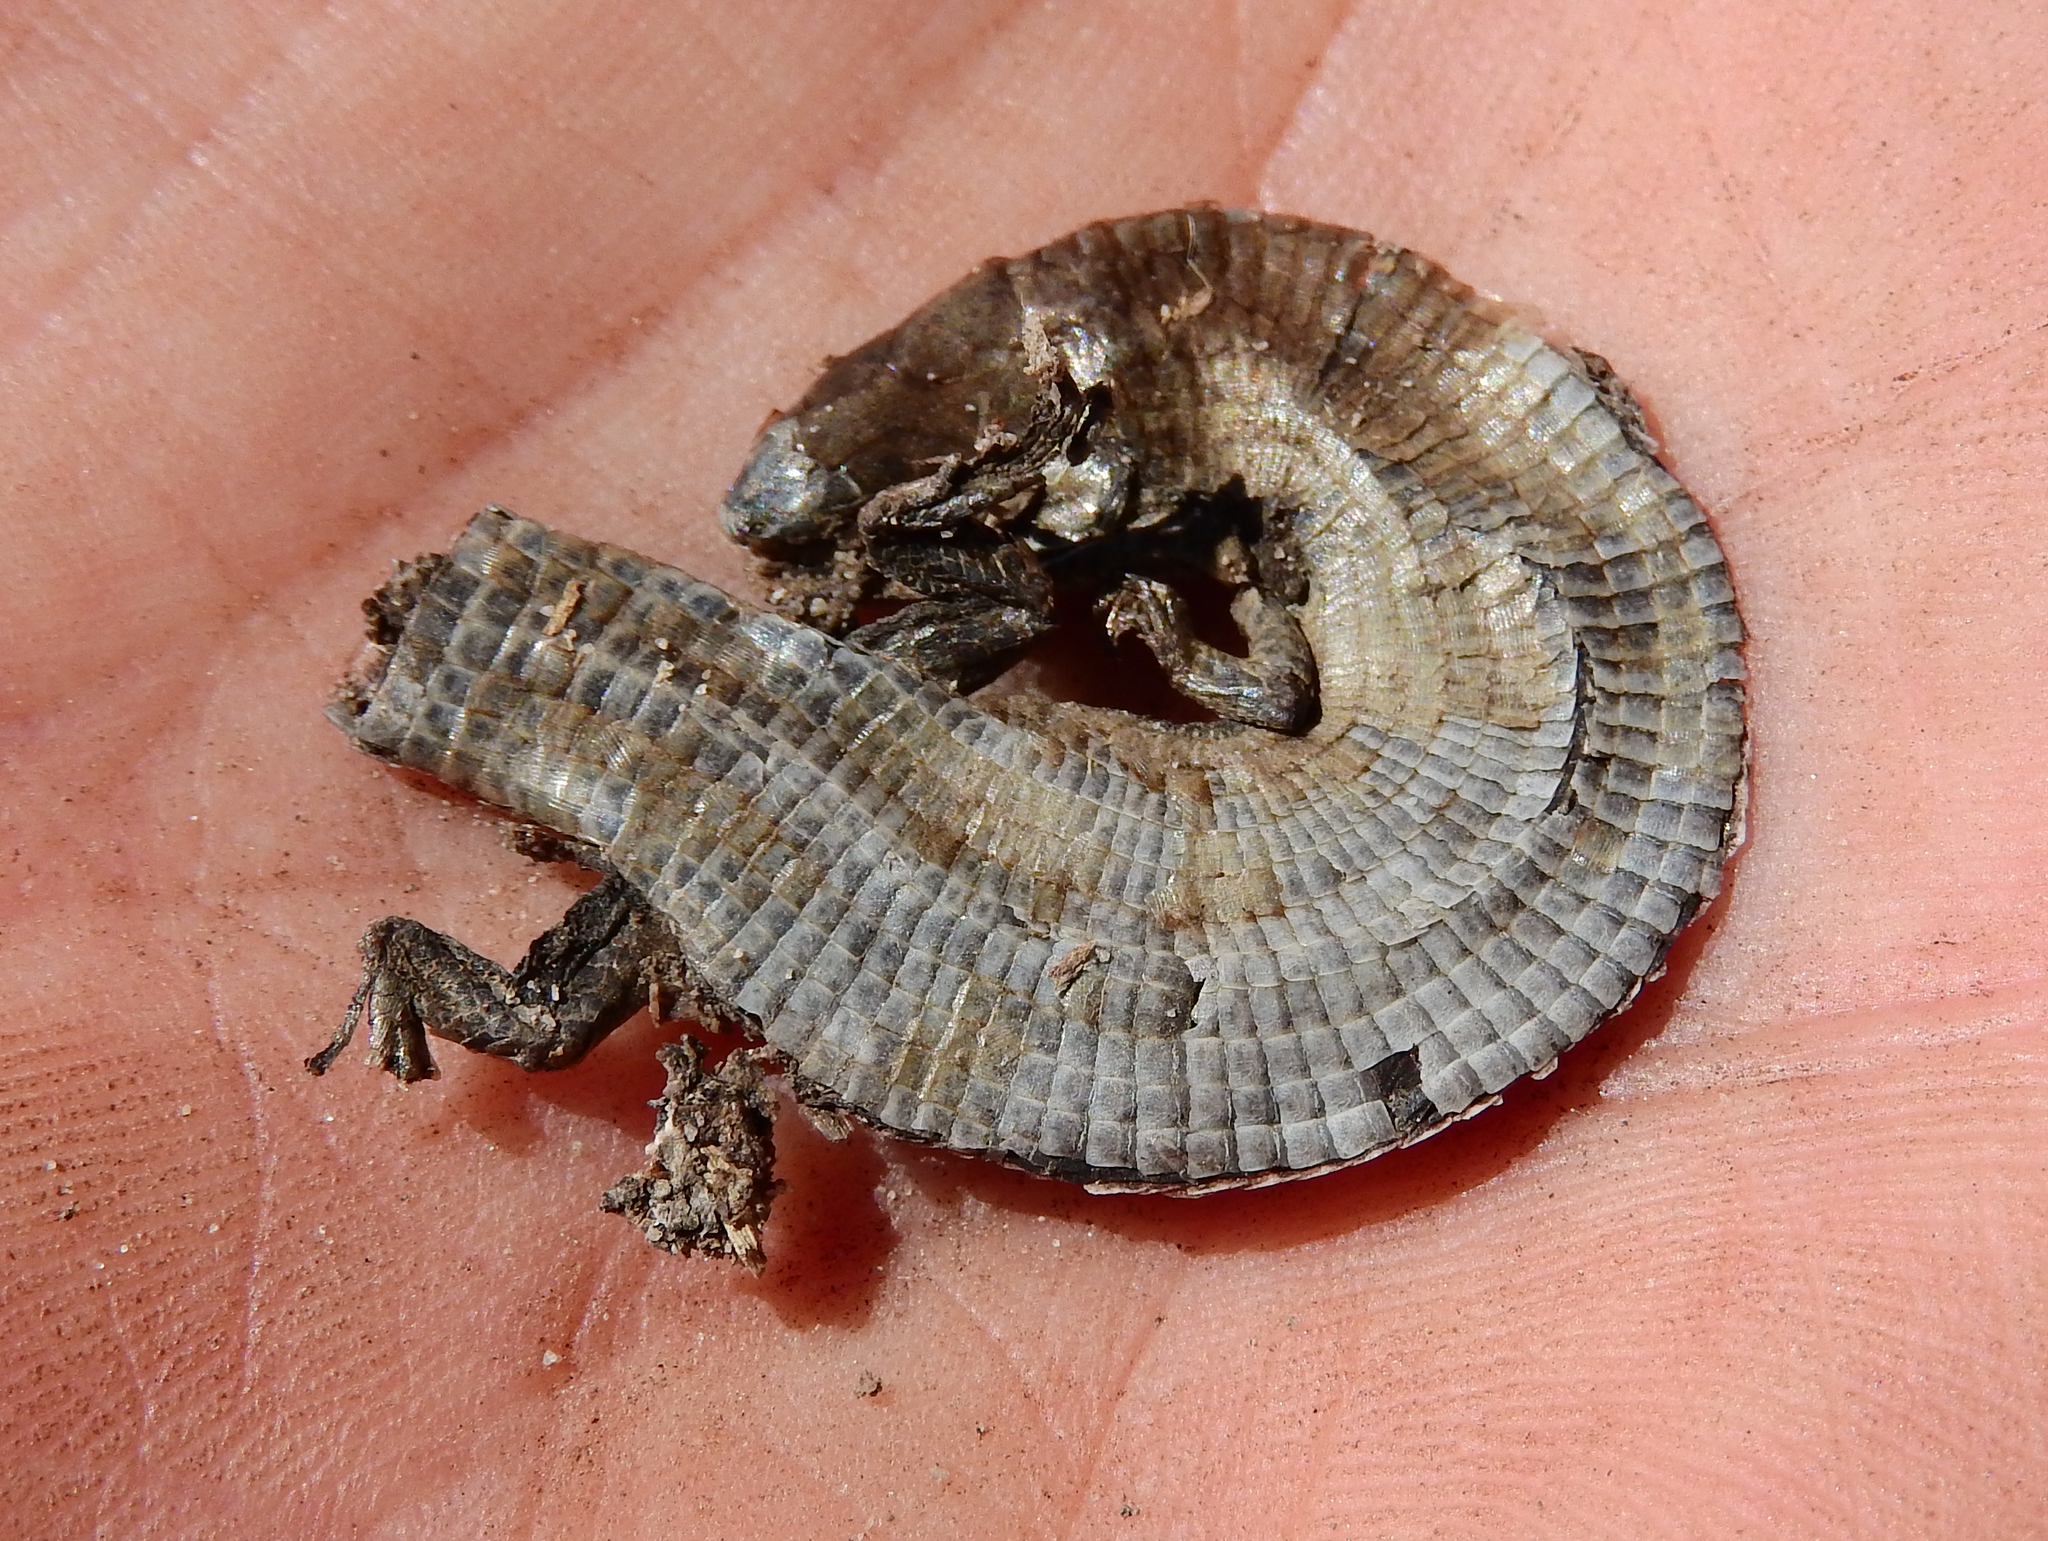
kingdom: Animalia
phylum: Chordata
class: Squamata
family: Gerrhosauridae
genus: Tetradactylus
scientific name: Tetradactylus seps
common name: Five-toed whip lizard
